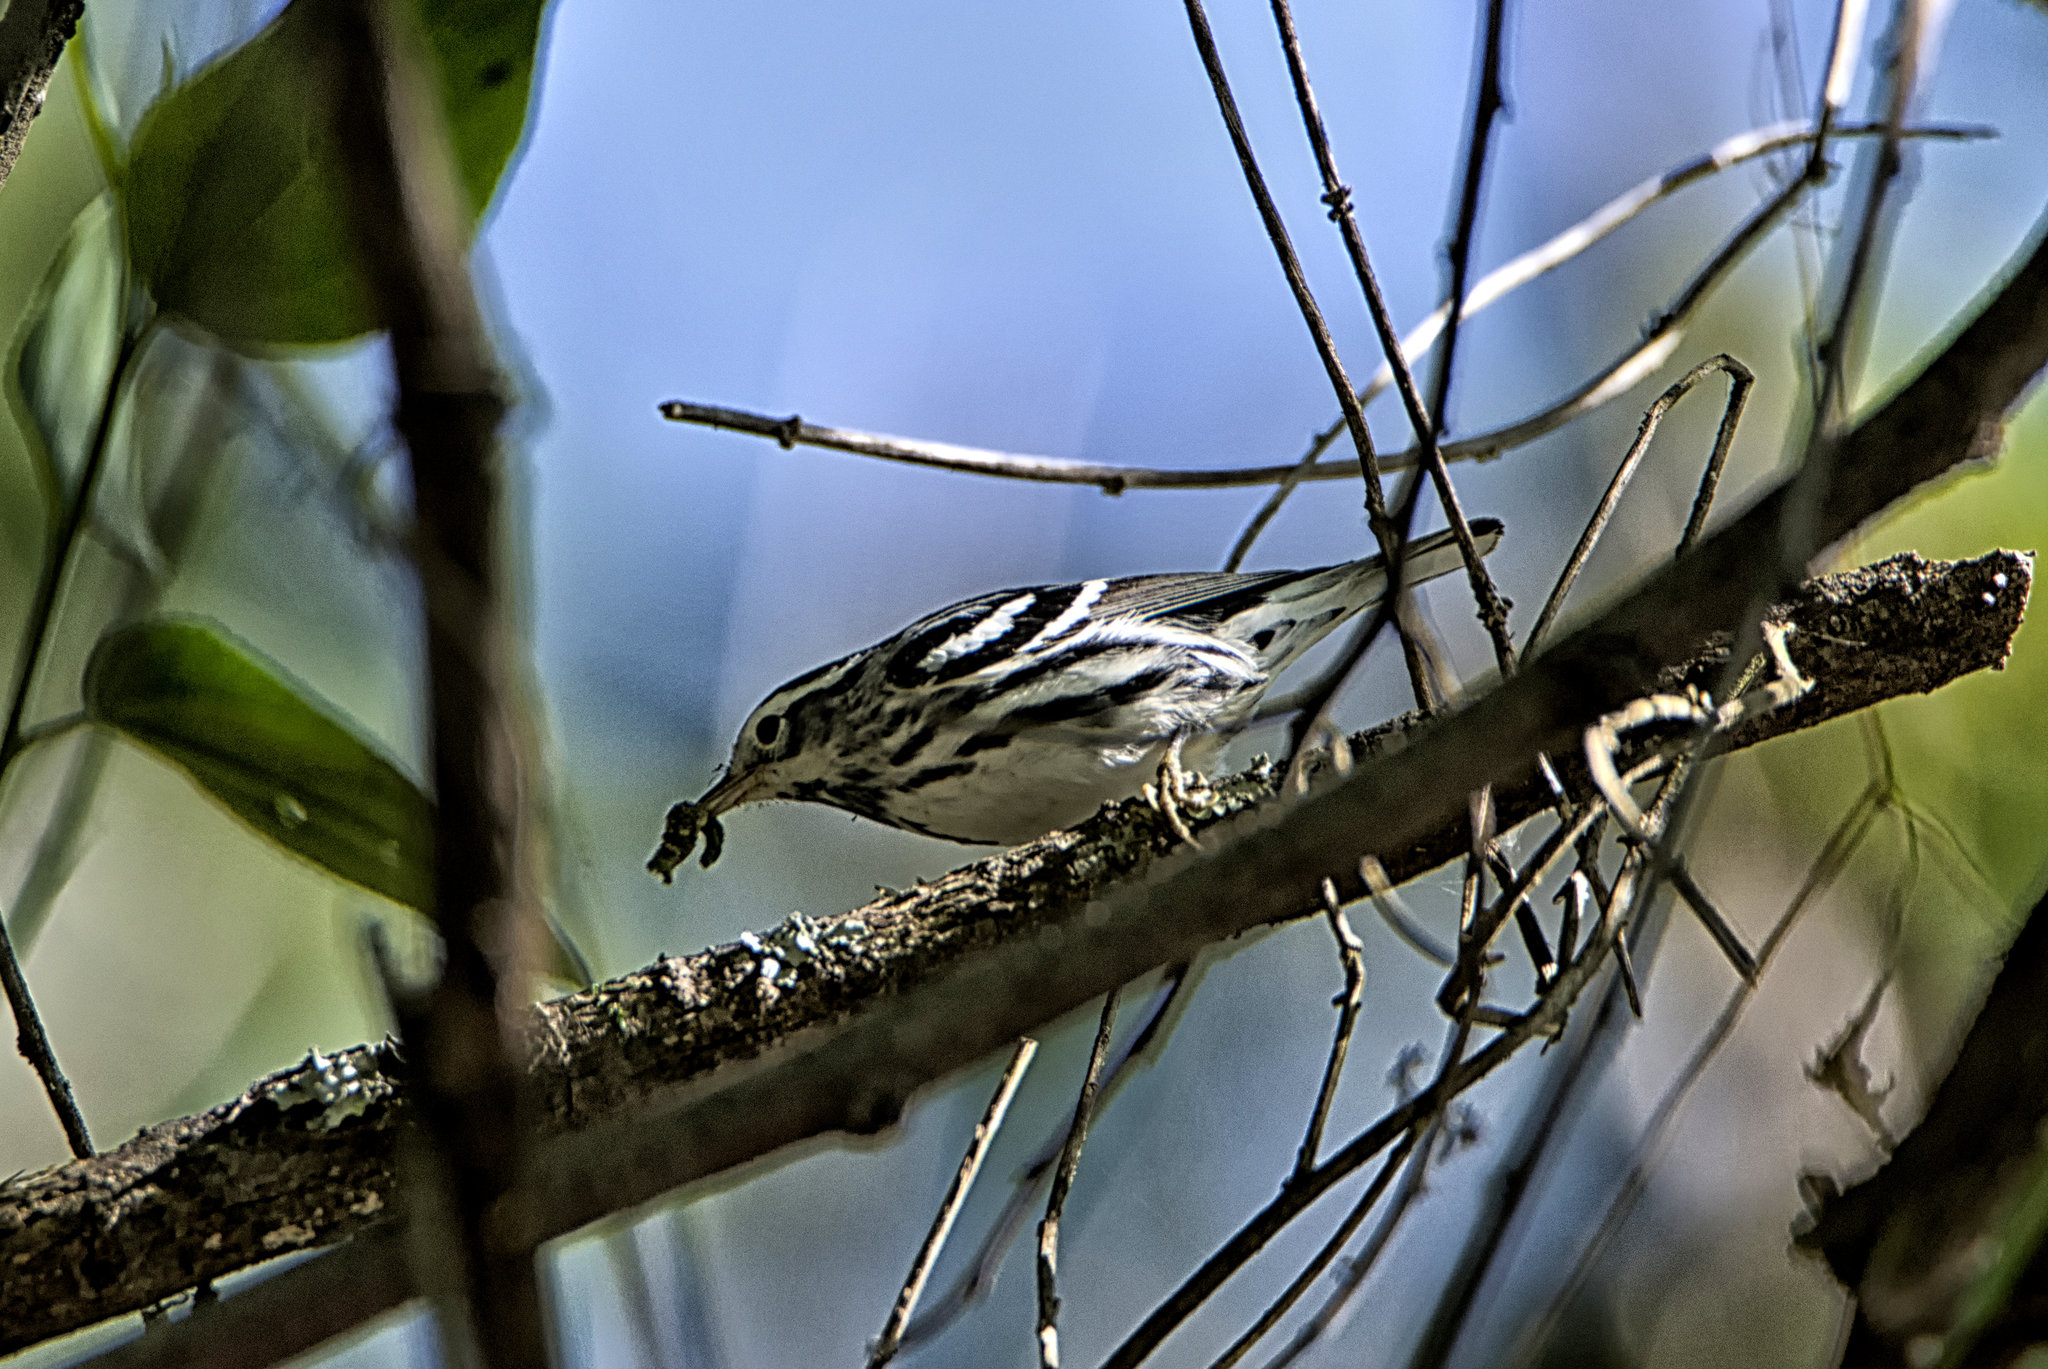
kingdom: Animalia
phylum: Chordata
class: Aves
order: Passeriformes
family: Parulidae
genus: Mniotilta
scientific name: Mniotilta varia
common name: Black-and-white warbler
